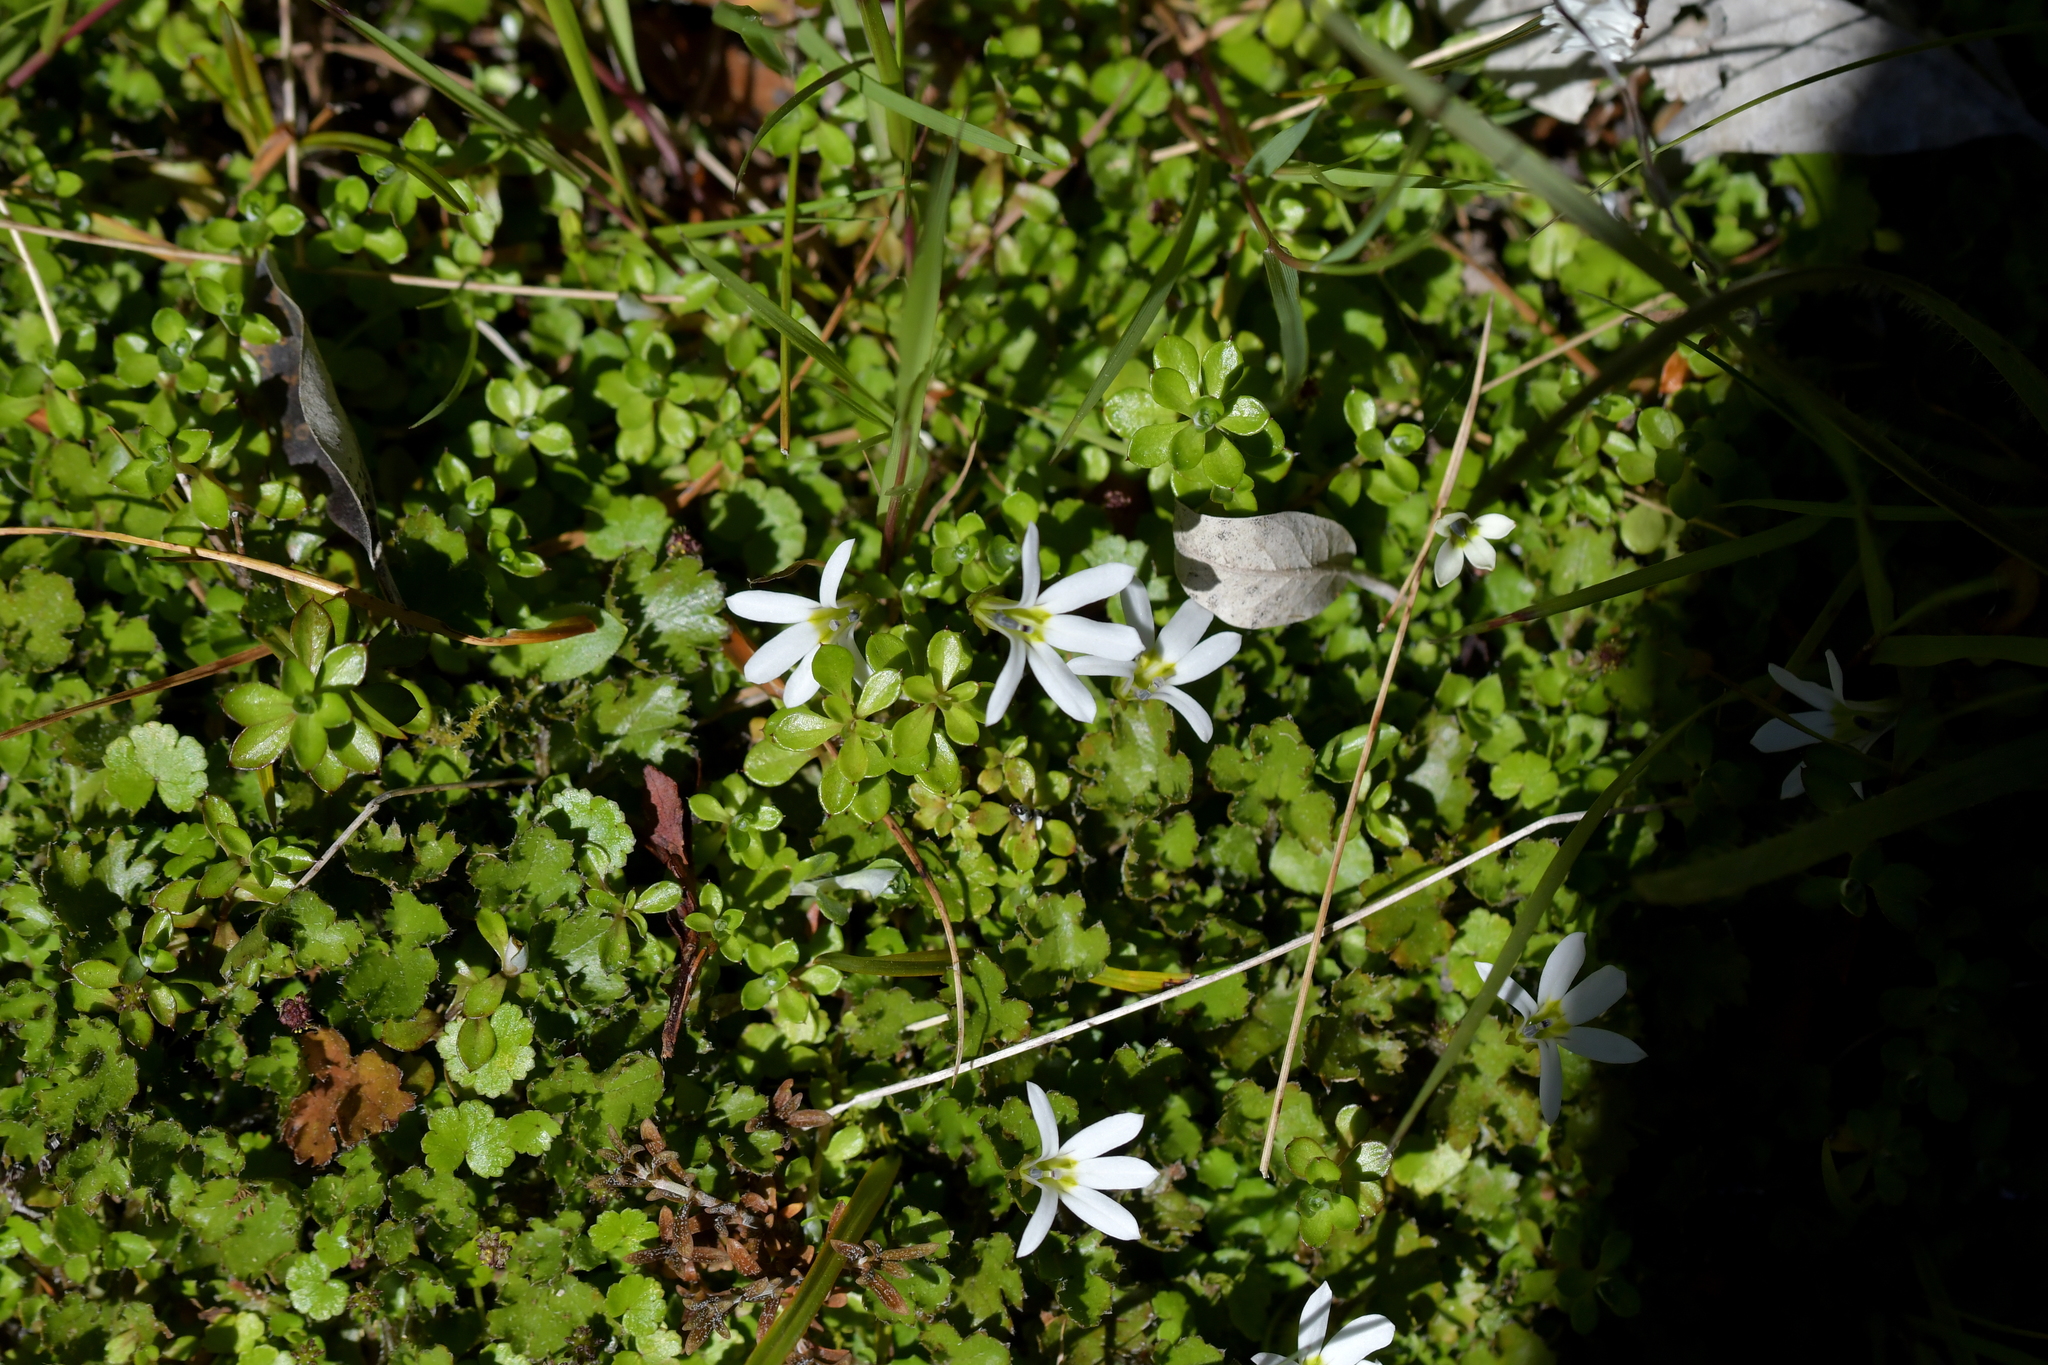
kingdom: Plantae
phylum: Tracheophyta
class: Magnoliopsida
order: Asterales
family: Campanulaceae
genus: Lobelia
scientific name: Lobelia angulata
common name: Lawn lobelia
